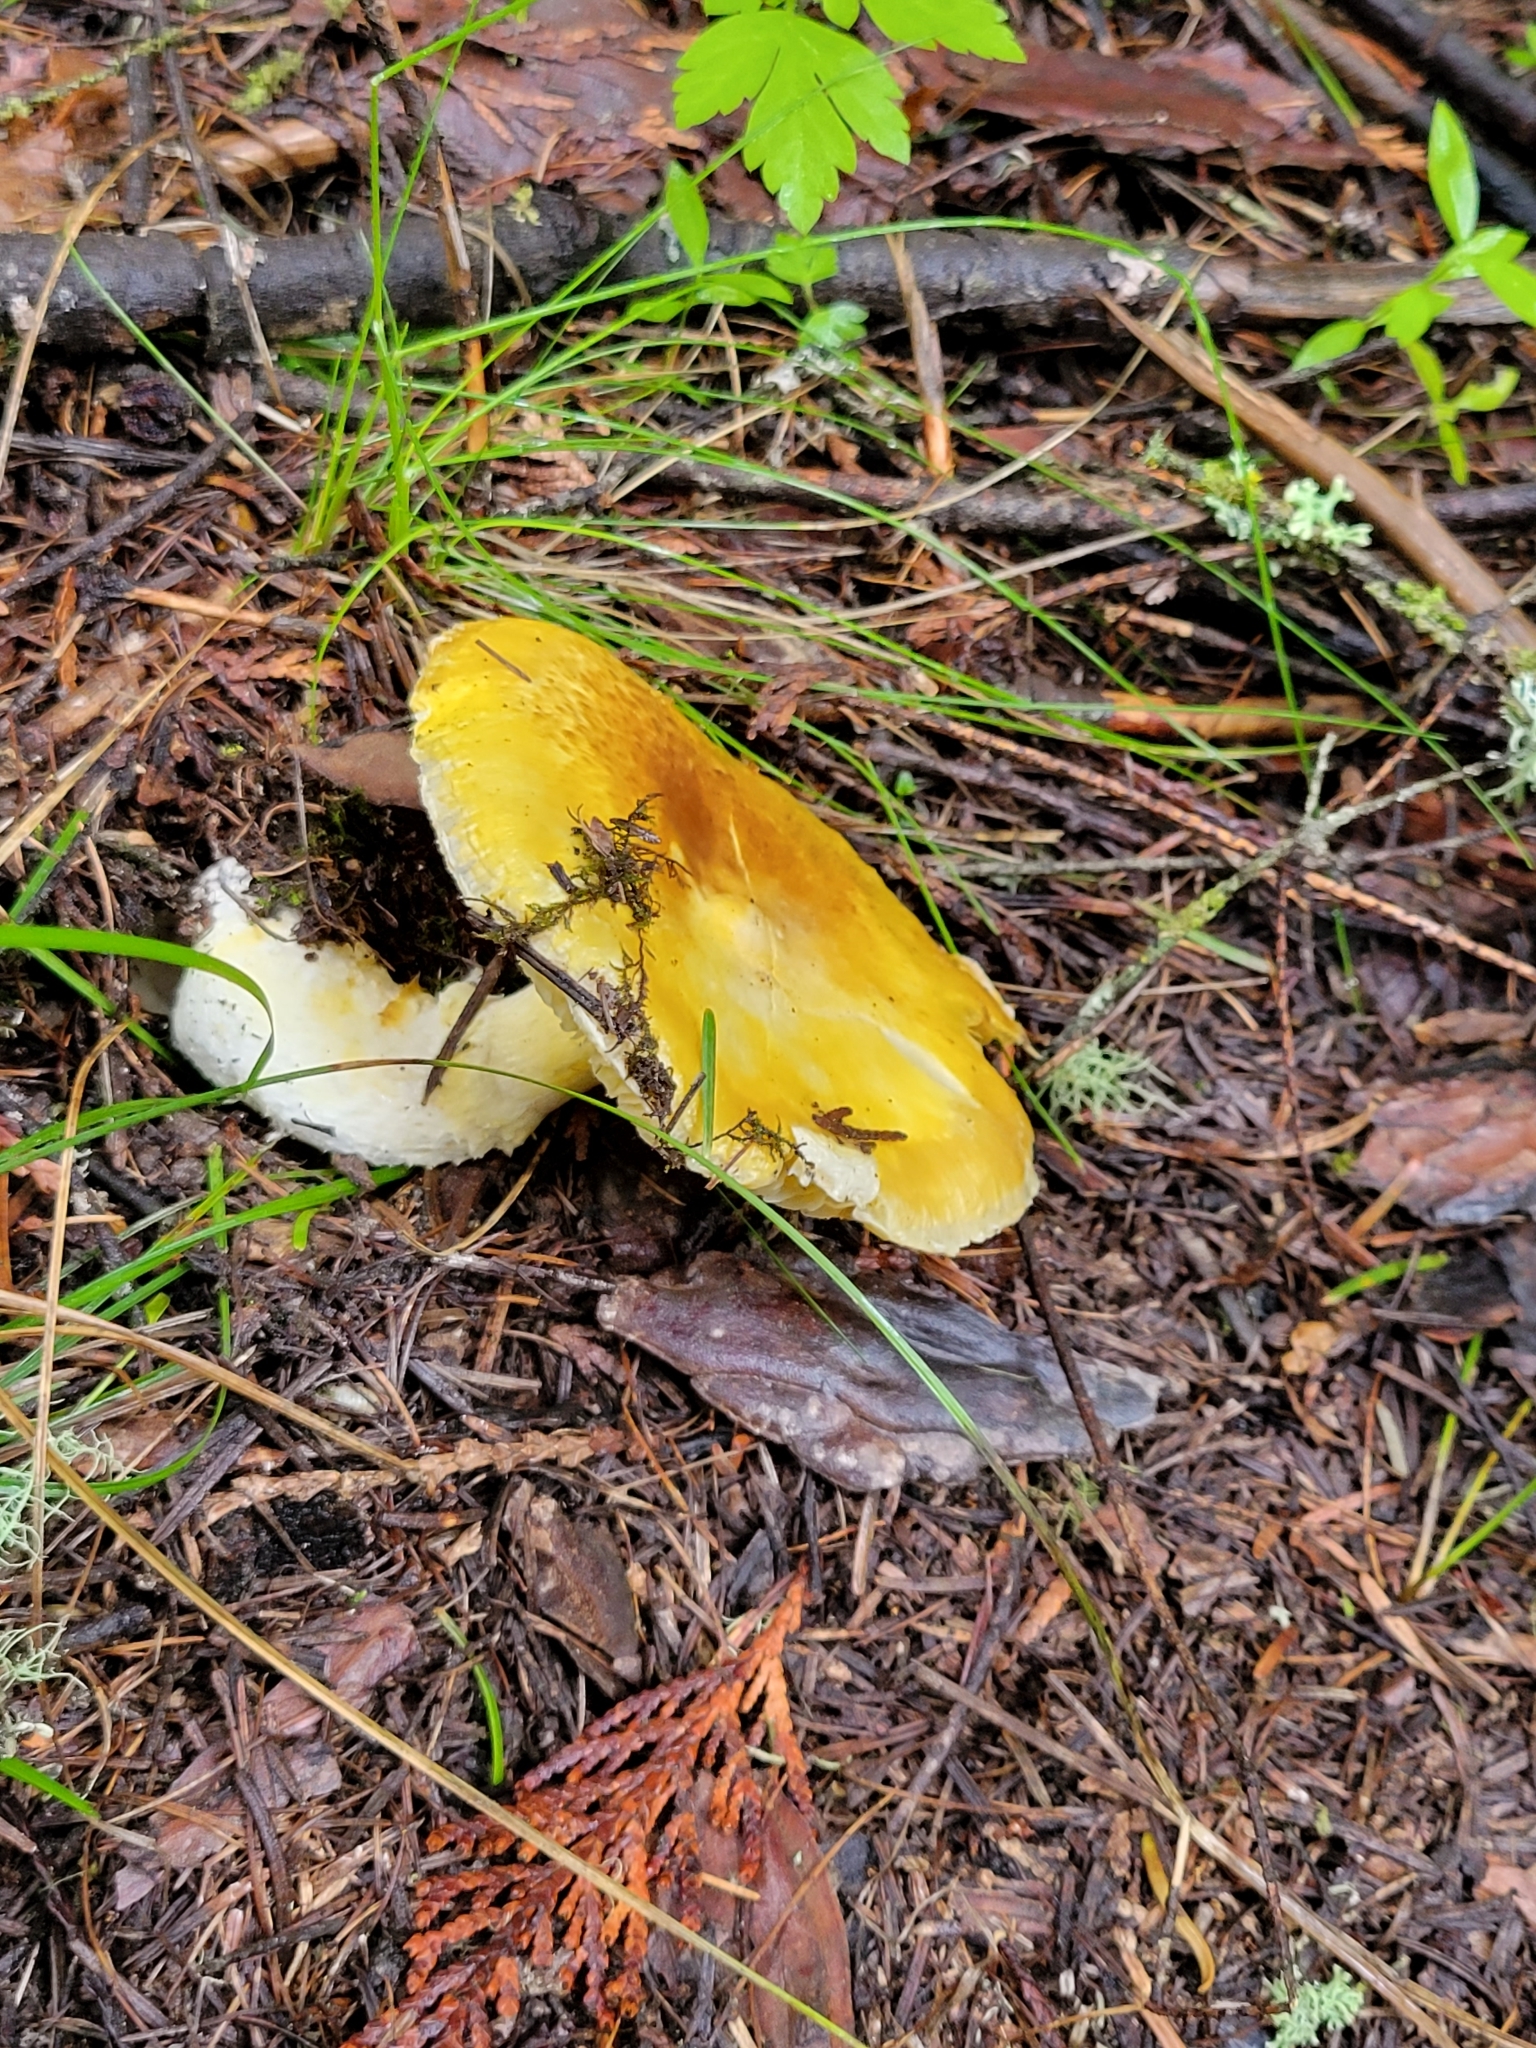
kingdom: Fungi
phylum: Basidiomycota
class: Agaricomycetes
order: Agaricales
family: Agaricaceae
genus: Floccularia
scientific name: Floccularia albolanaripes
